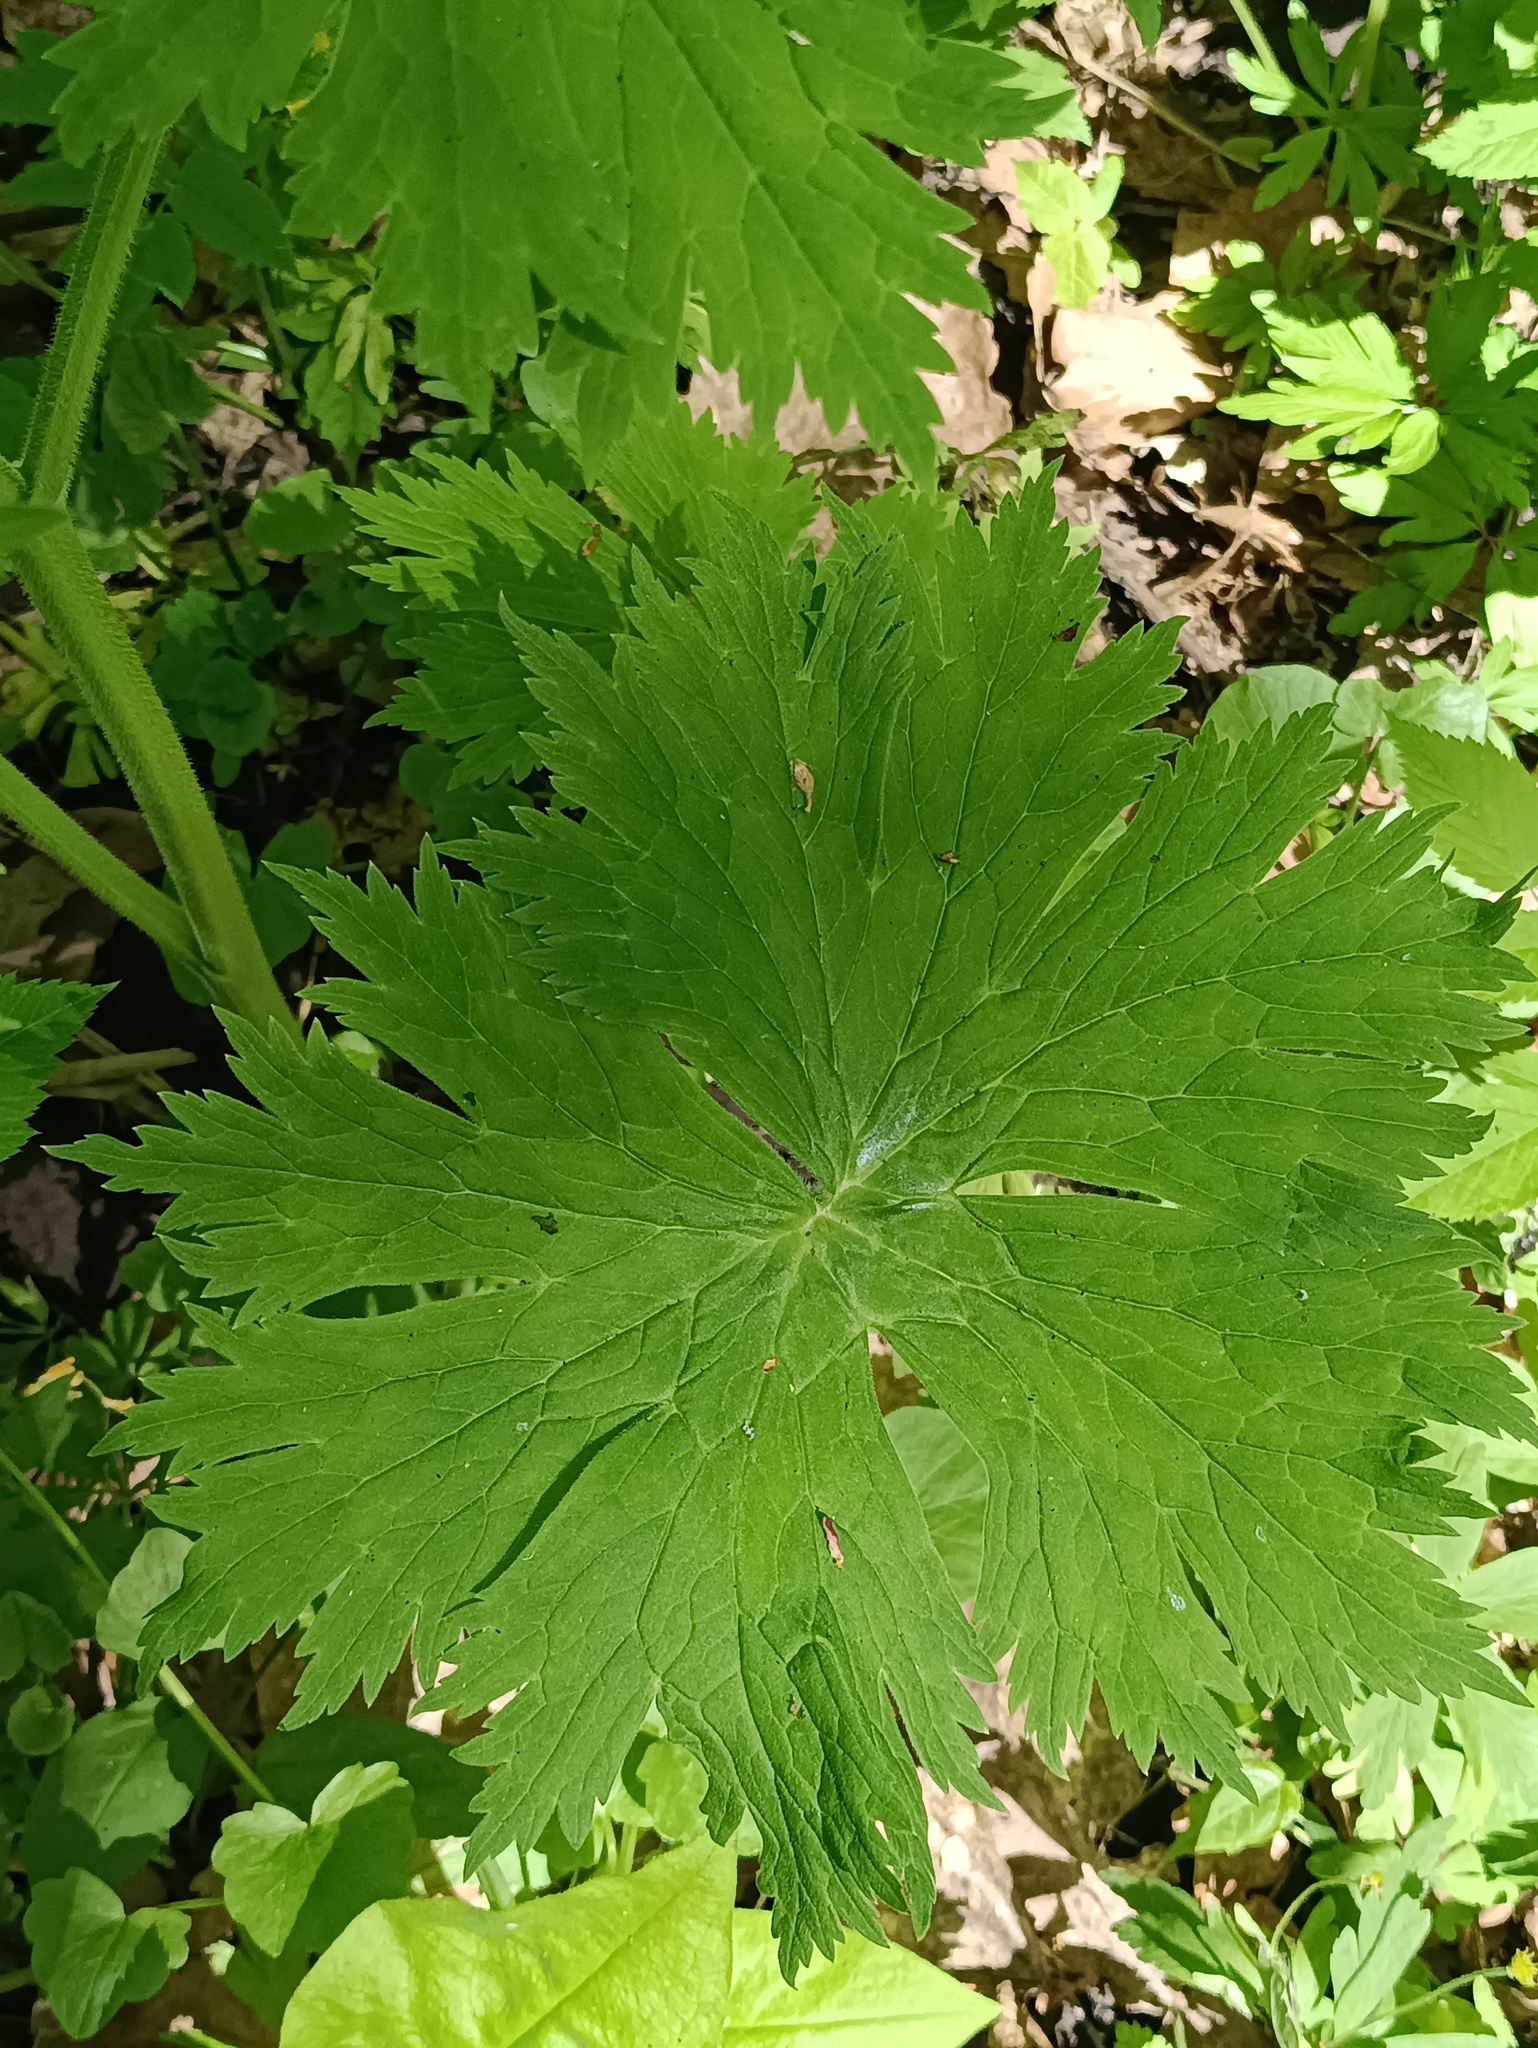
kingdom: Plantae
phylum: Tracheophyta
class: Magnoliopsida
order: Ranunculales
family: Ranunculaceae
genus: Aconitum
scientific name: Aconitum septentrionale
